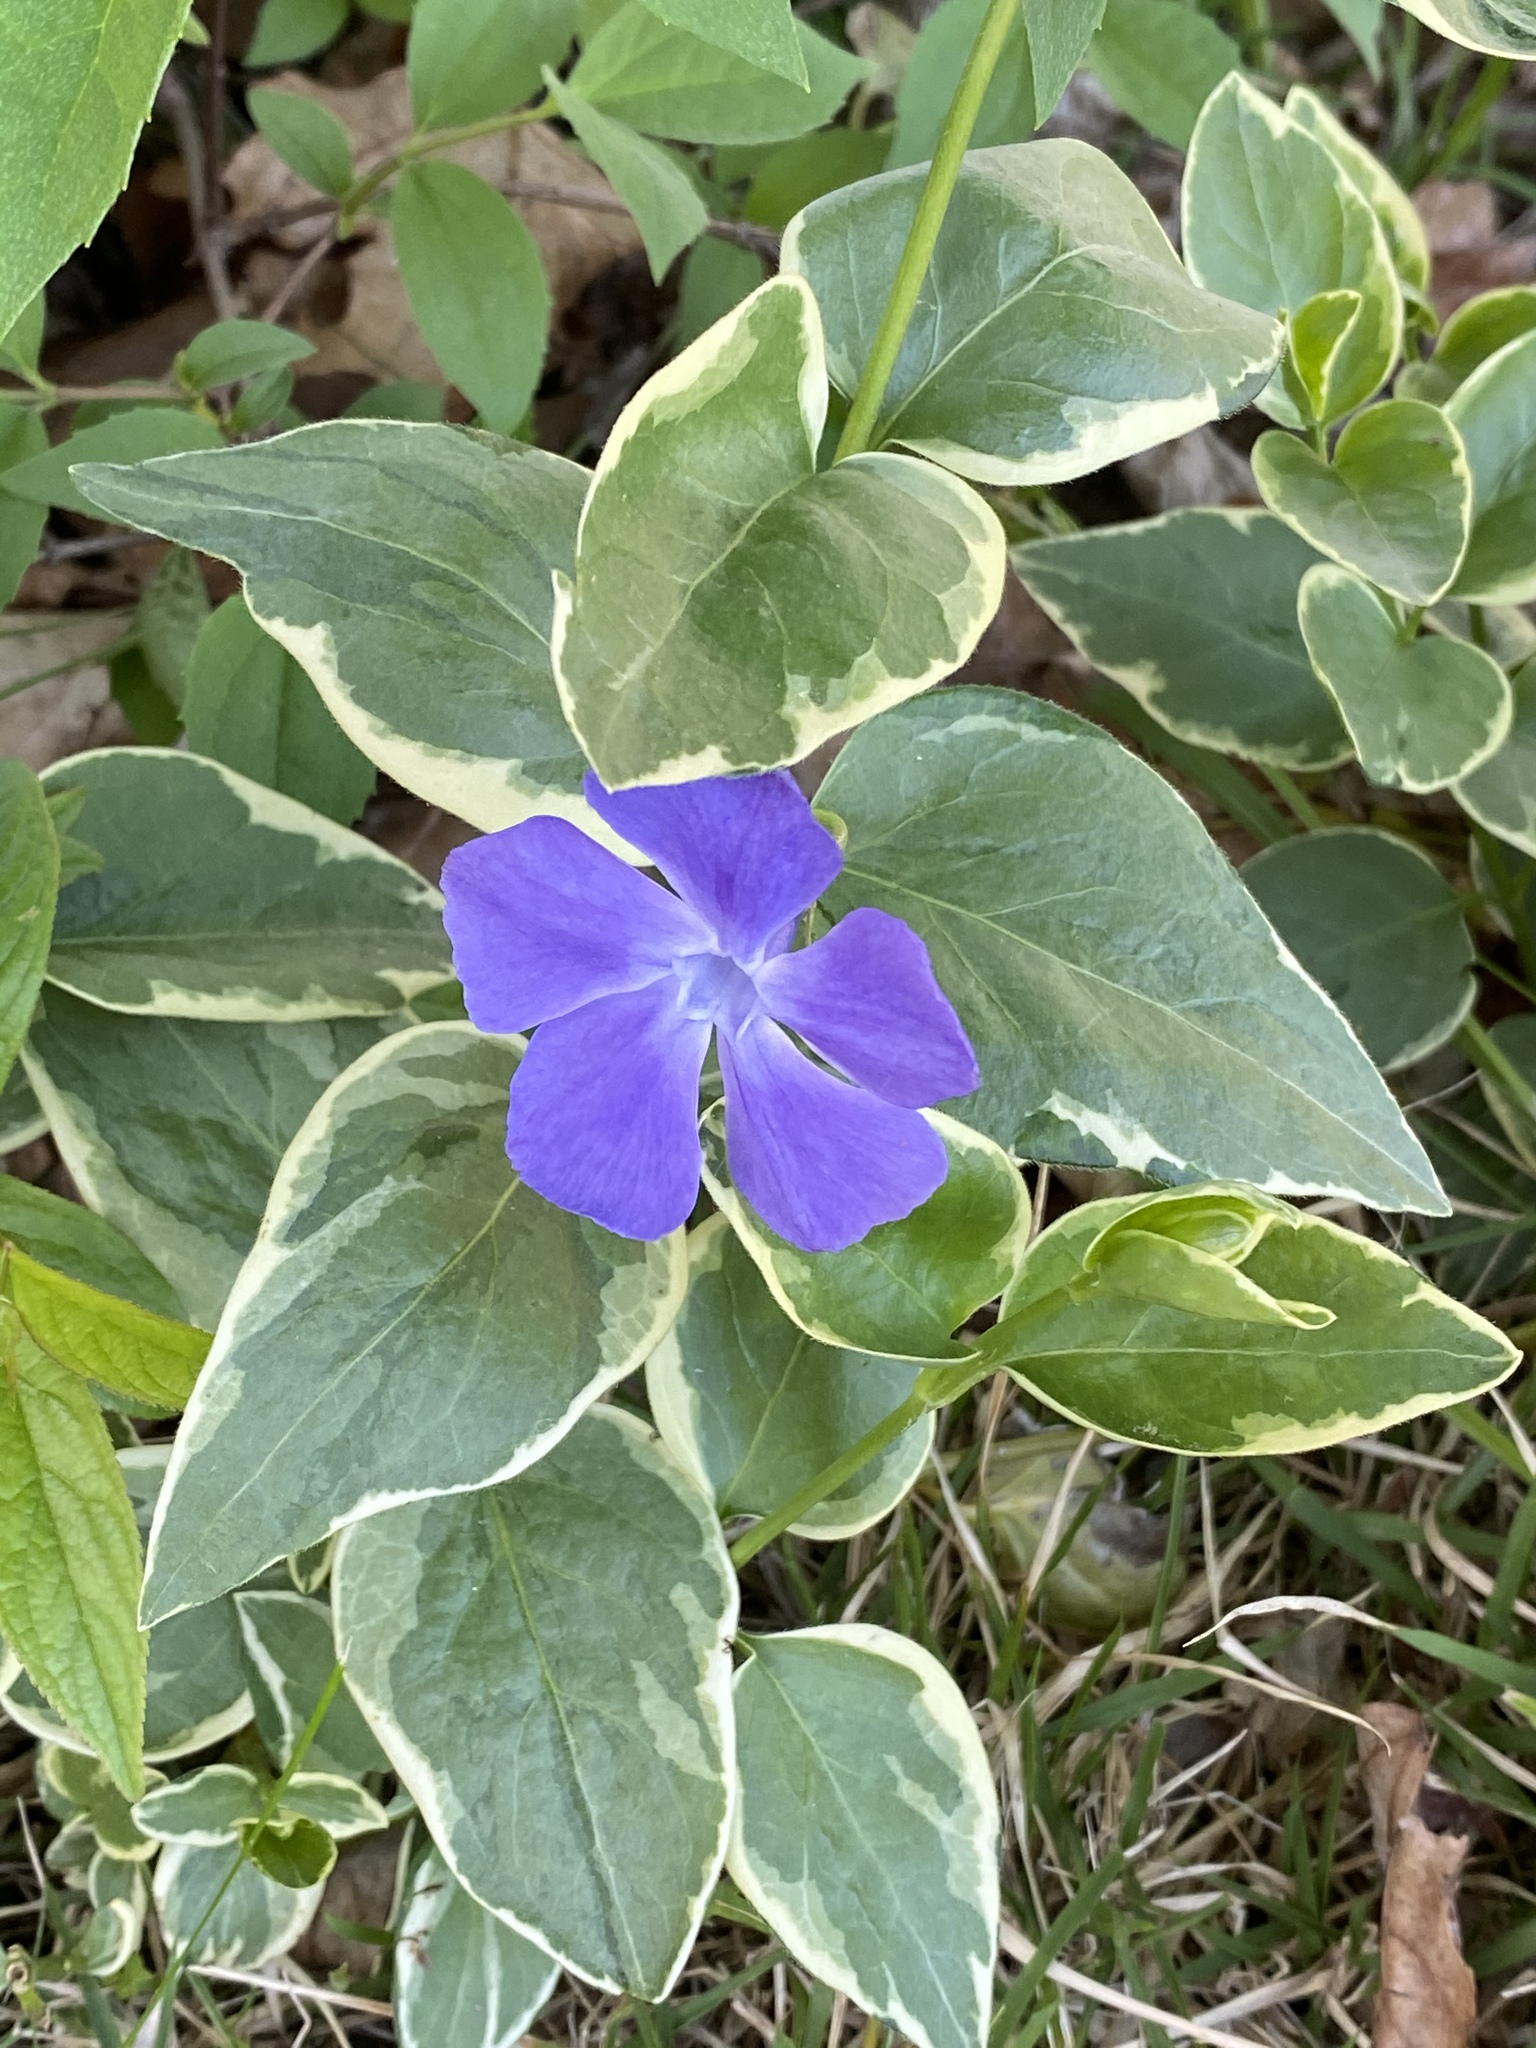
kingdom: Plantae
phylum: Tracheophyta
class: Magnoliopsida
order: Gentianales
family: Apocynaceae
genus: Vinca
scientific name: Vinca major
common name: Greater periwinkle
